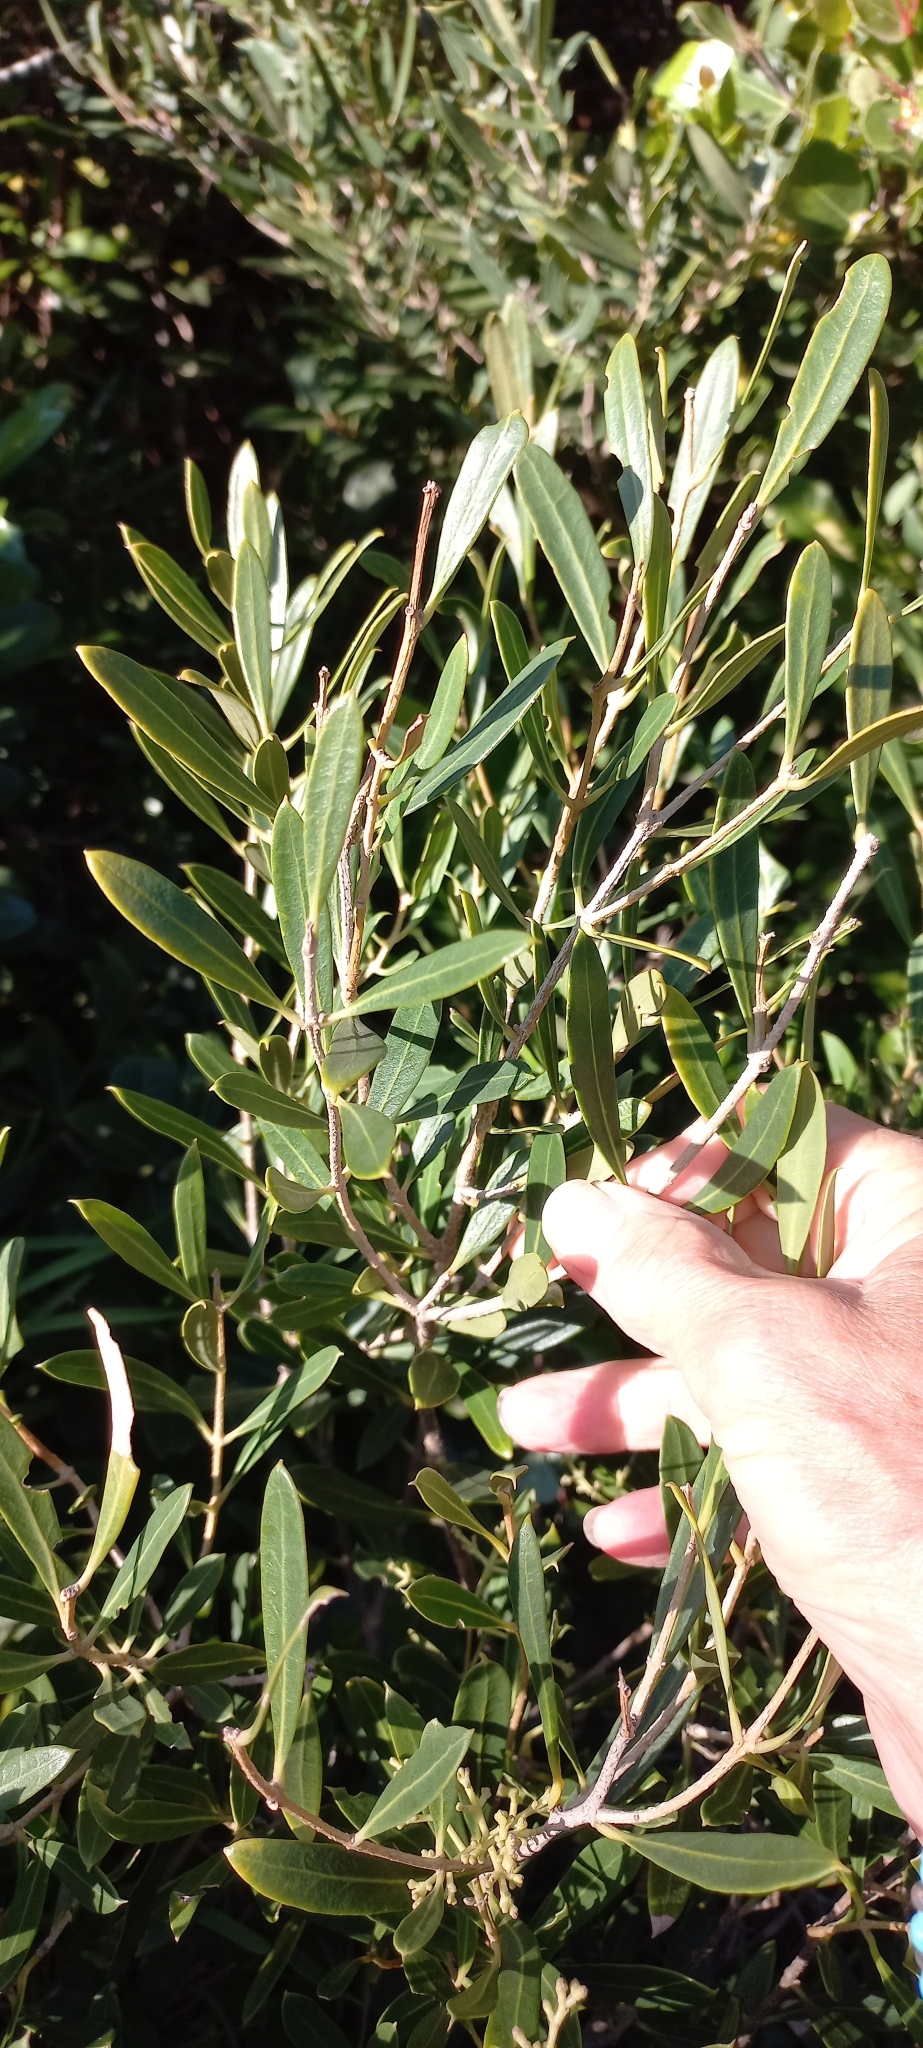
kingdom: Plantae
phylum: Tracheophyta
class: Magnoliopsida
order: Lamiales
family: Oleaceae
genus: Olea
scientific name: Olea exasperata
